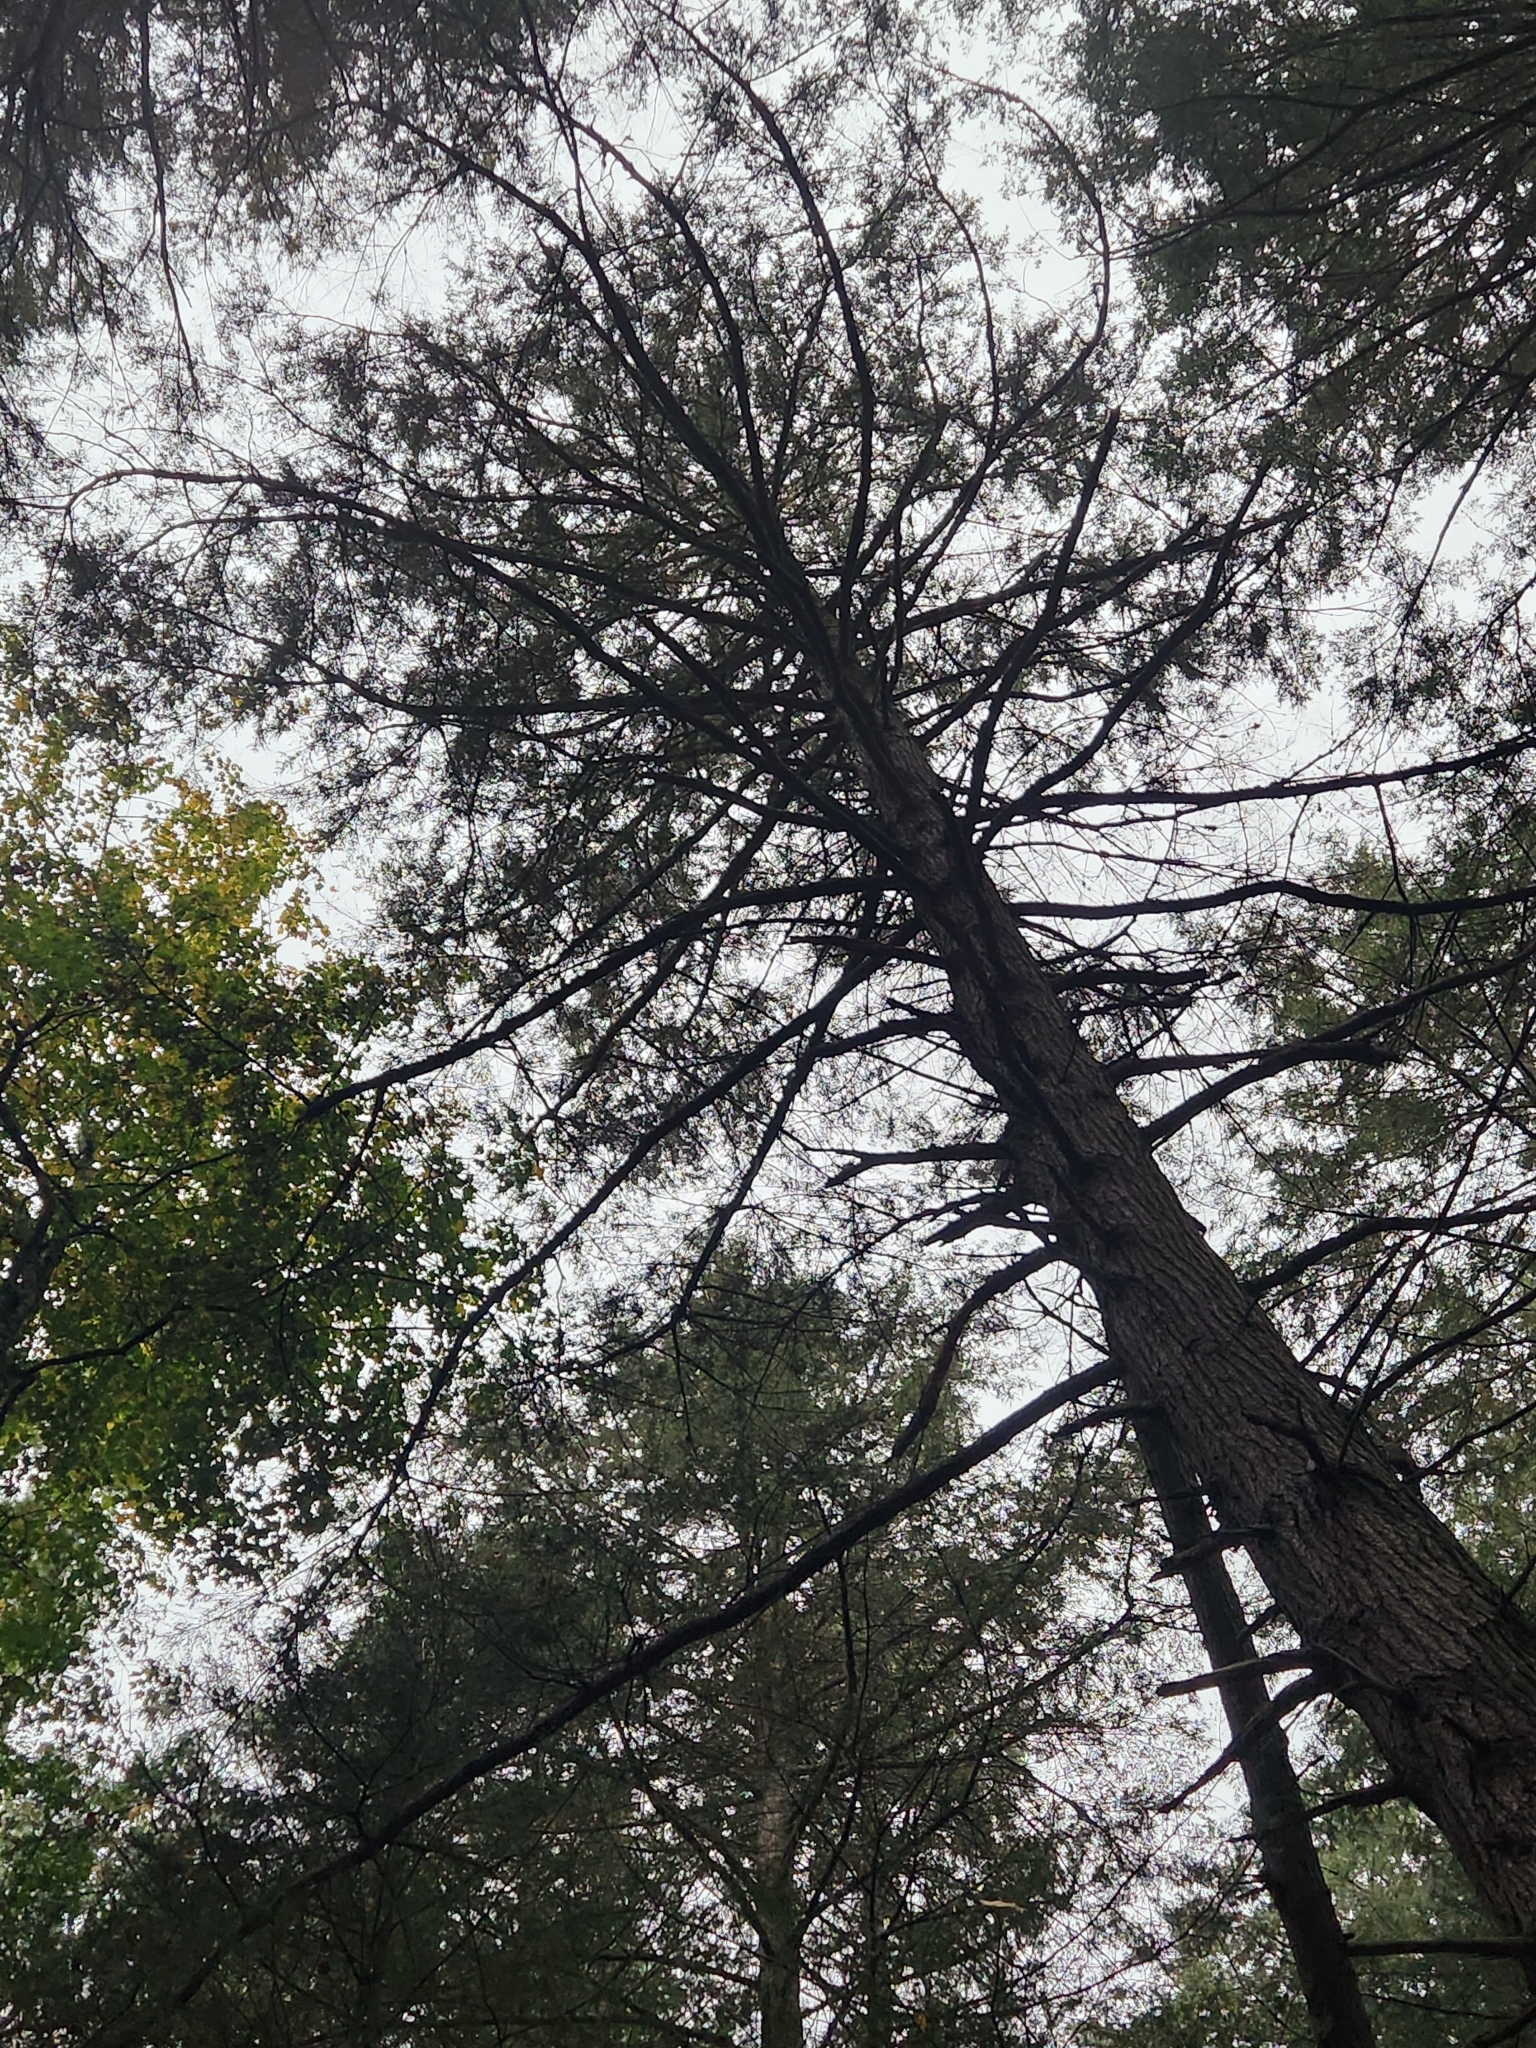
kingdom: Plantae
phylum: Tracheophyta
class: Pinopsida
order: Pinales
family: Pinaceae
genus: Tsuga
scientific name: Tsuga canadensis
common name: Eastern hemlock
